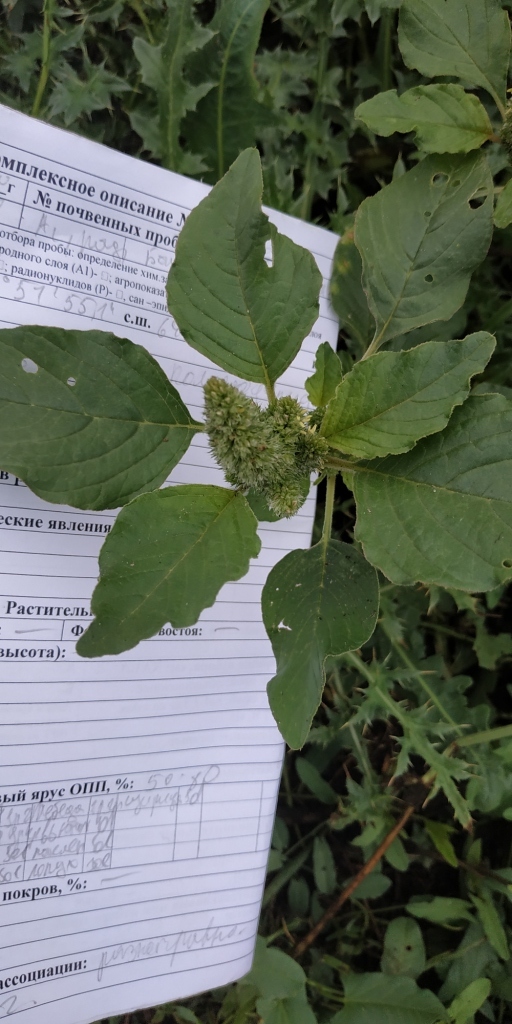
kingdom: Plantae
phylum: Tracheophyta
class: Magnoliopsida
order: Caryophyllales
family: Amaranthaceae
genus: Amaranthus
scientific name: Amaranthus retroflexus
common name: Redroot amaranth
